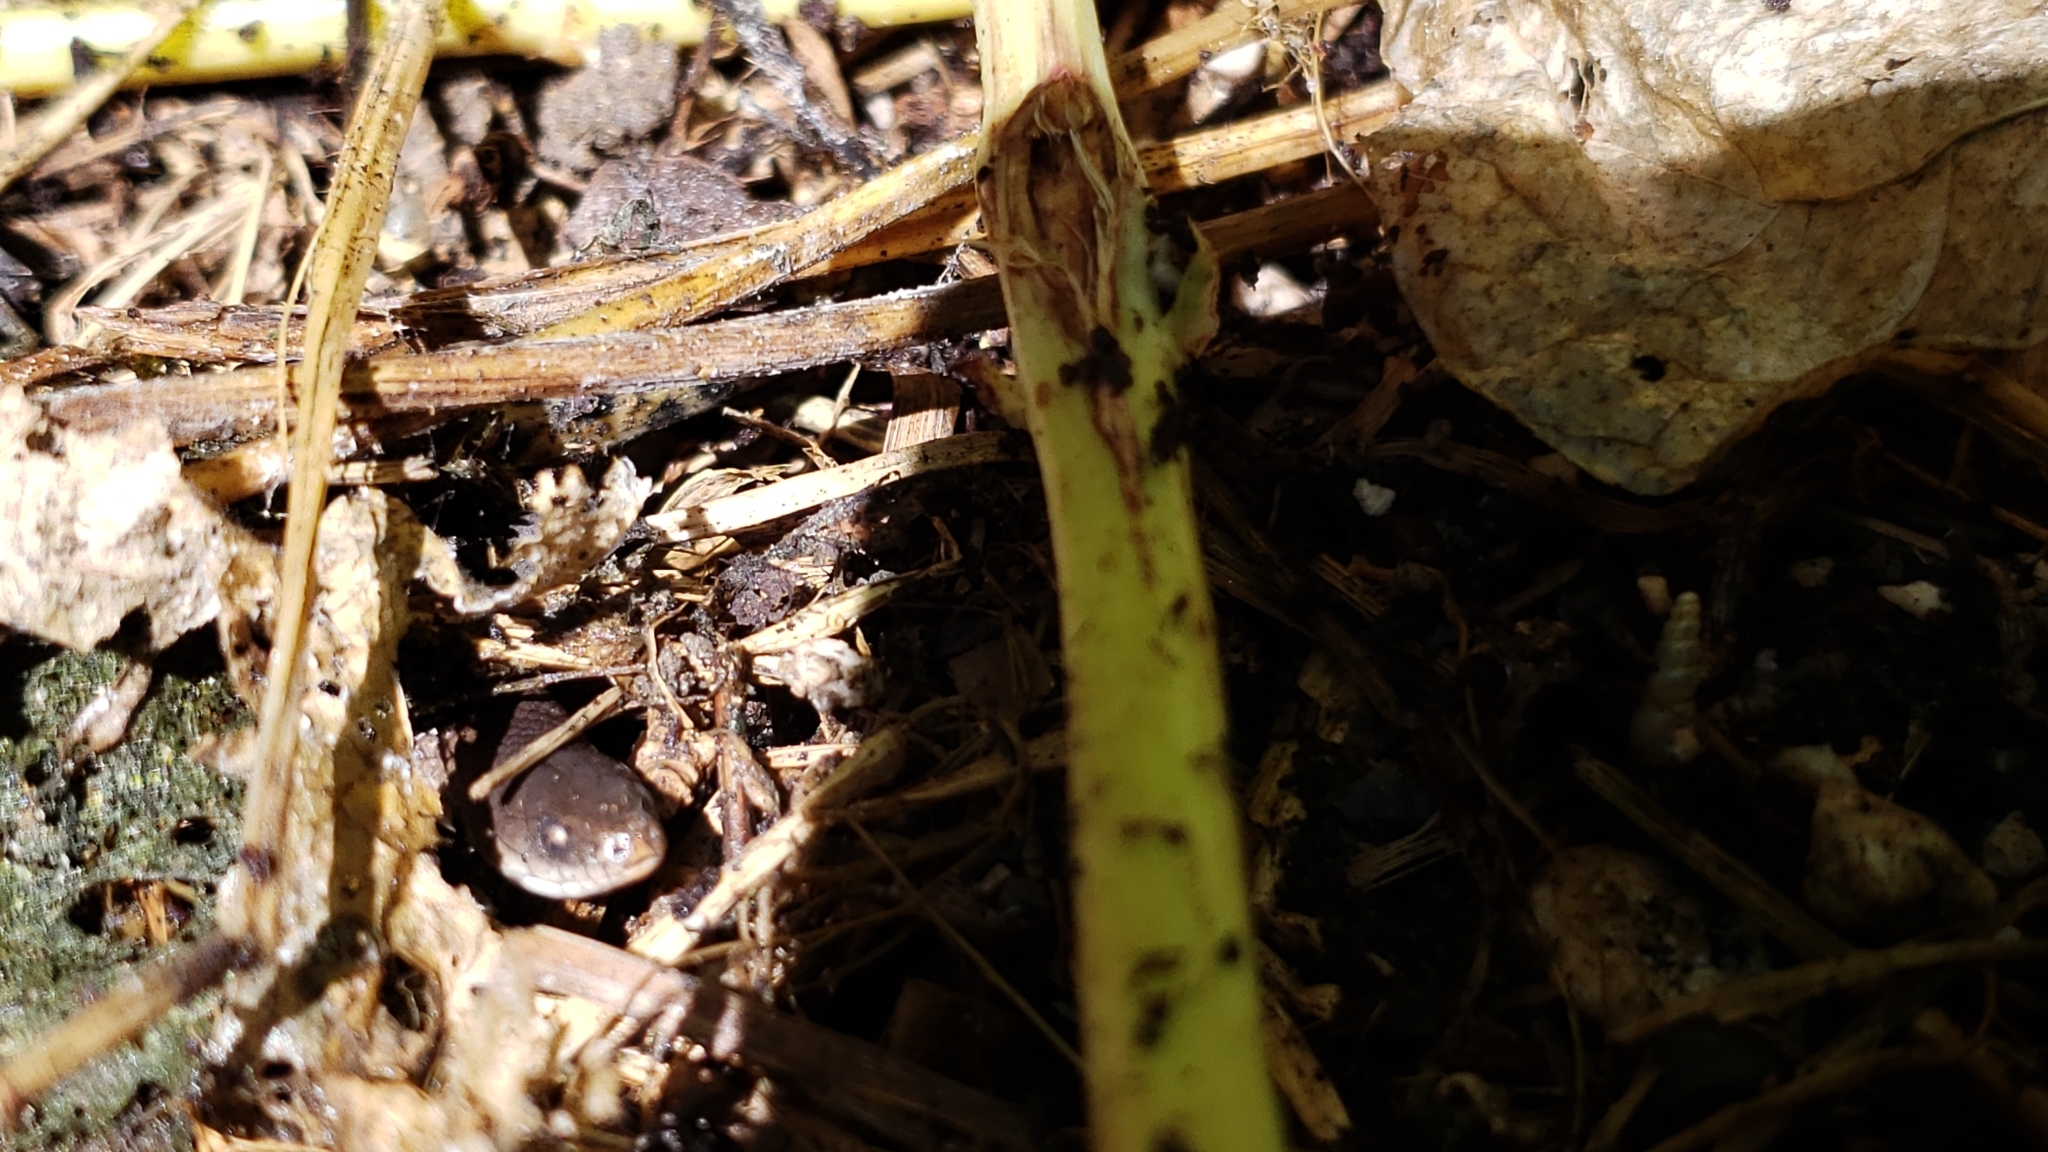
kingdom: Animalia
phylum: Chordata
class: Squamata
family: Colubridae
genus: Haldea
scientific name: Haldea striatula
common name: Rough earth snake
